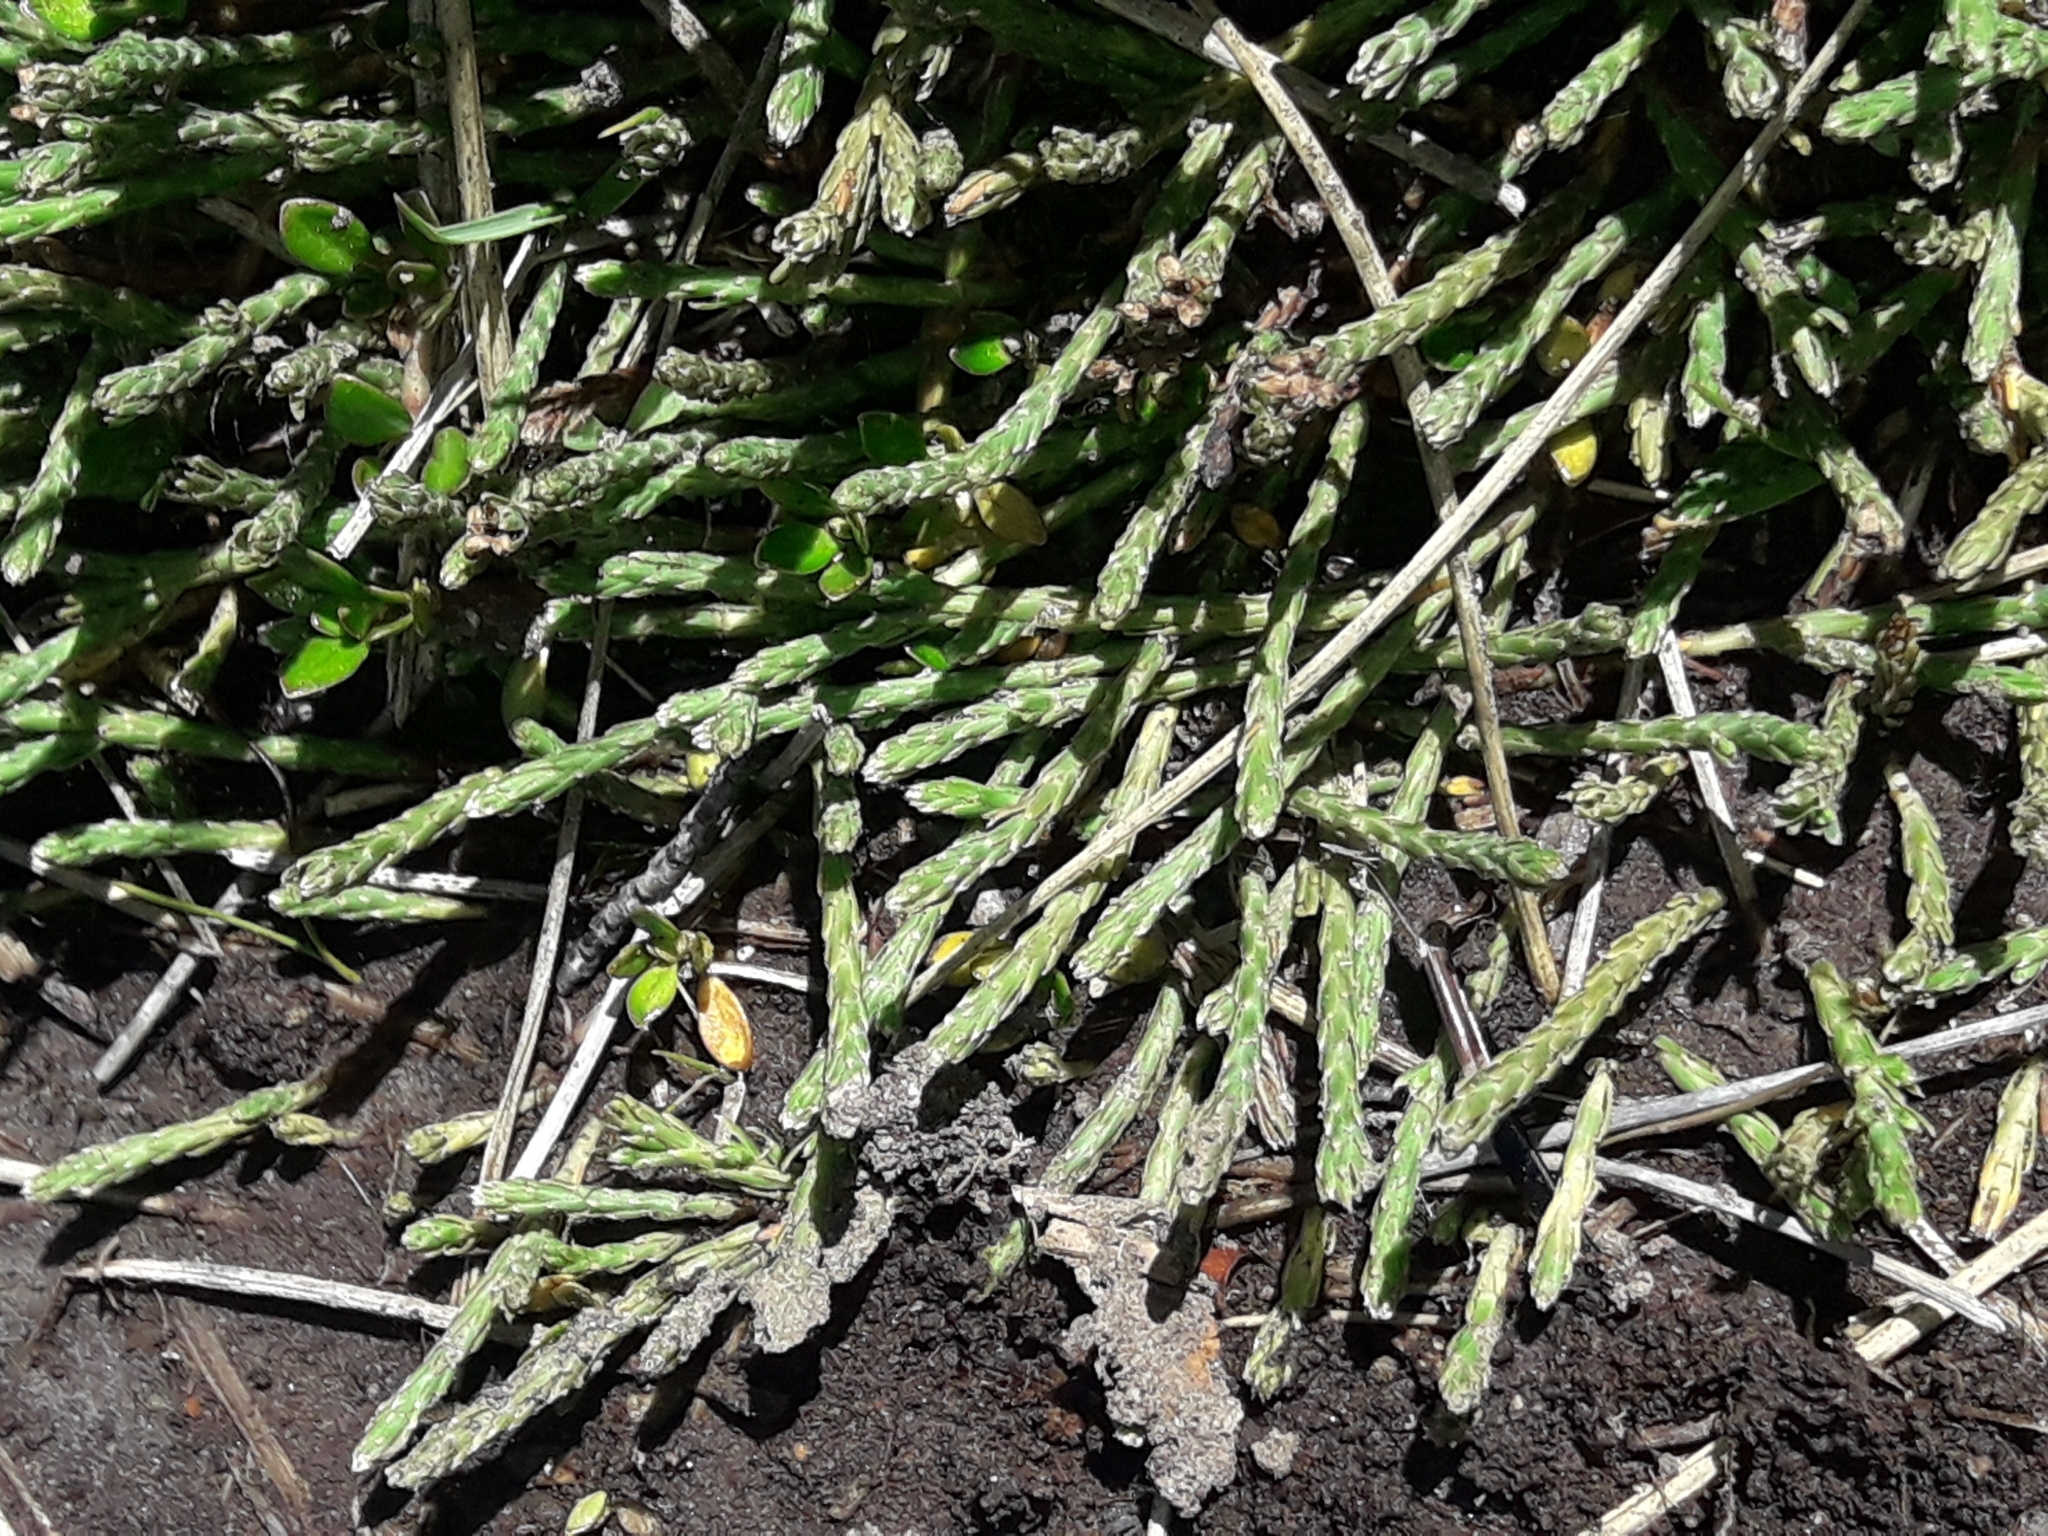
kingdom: Plantae
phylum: Tracheophyta
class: Magnoliopsida
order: Malvales
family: Thymelaeaceae
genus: Kelleria
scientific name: Kelleria dieffenbachii
